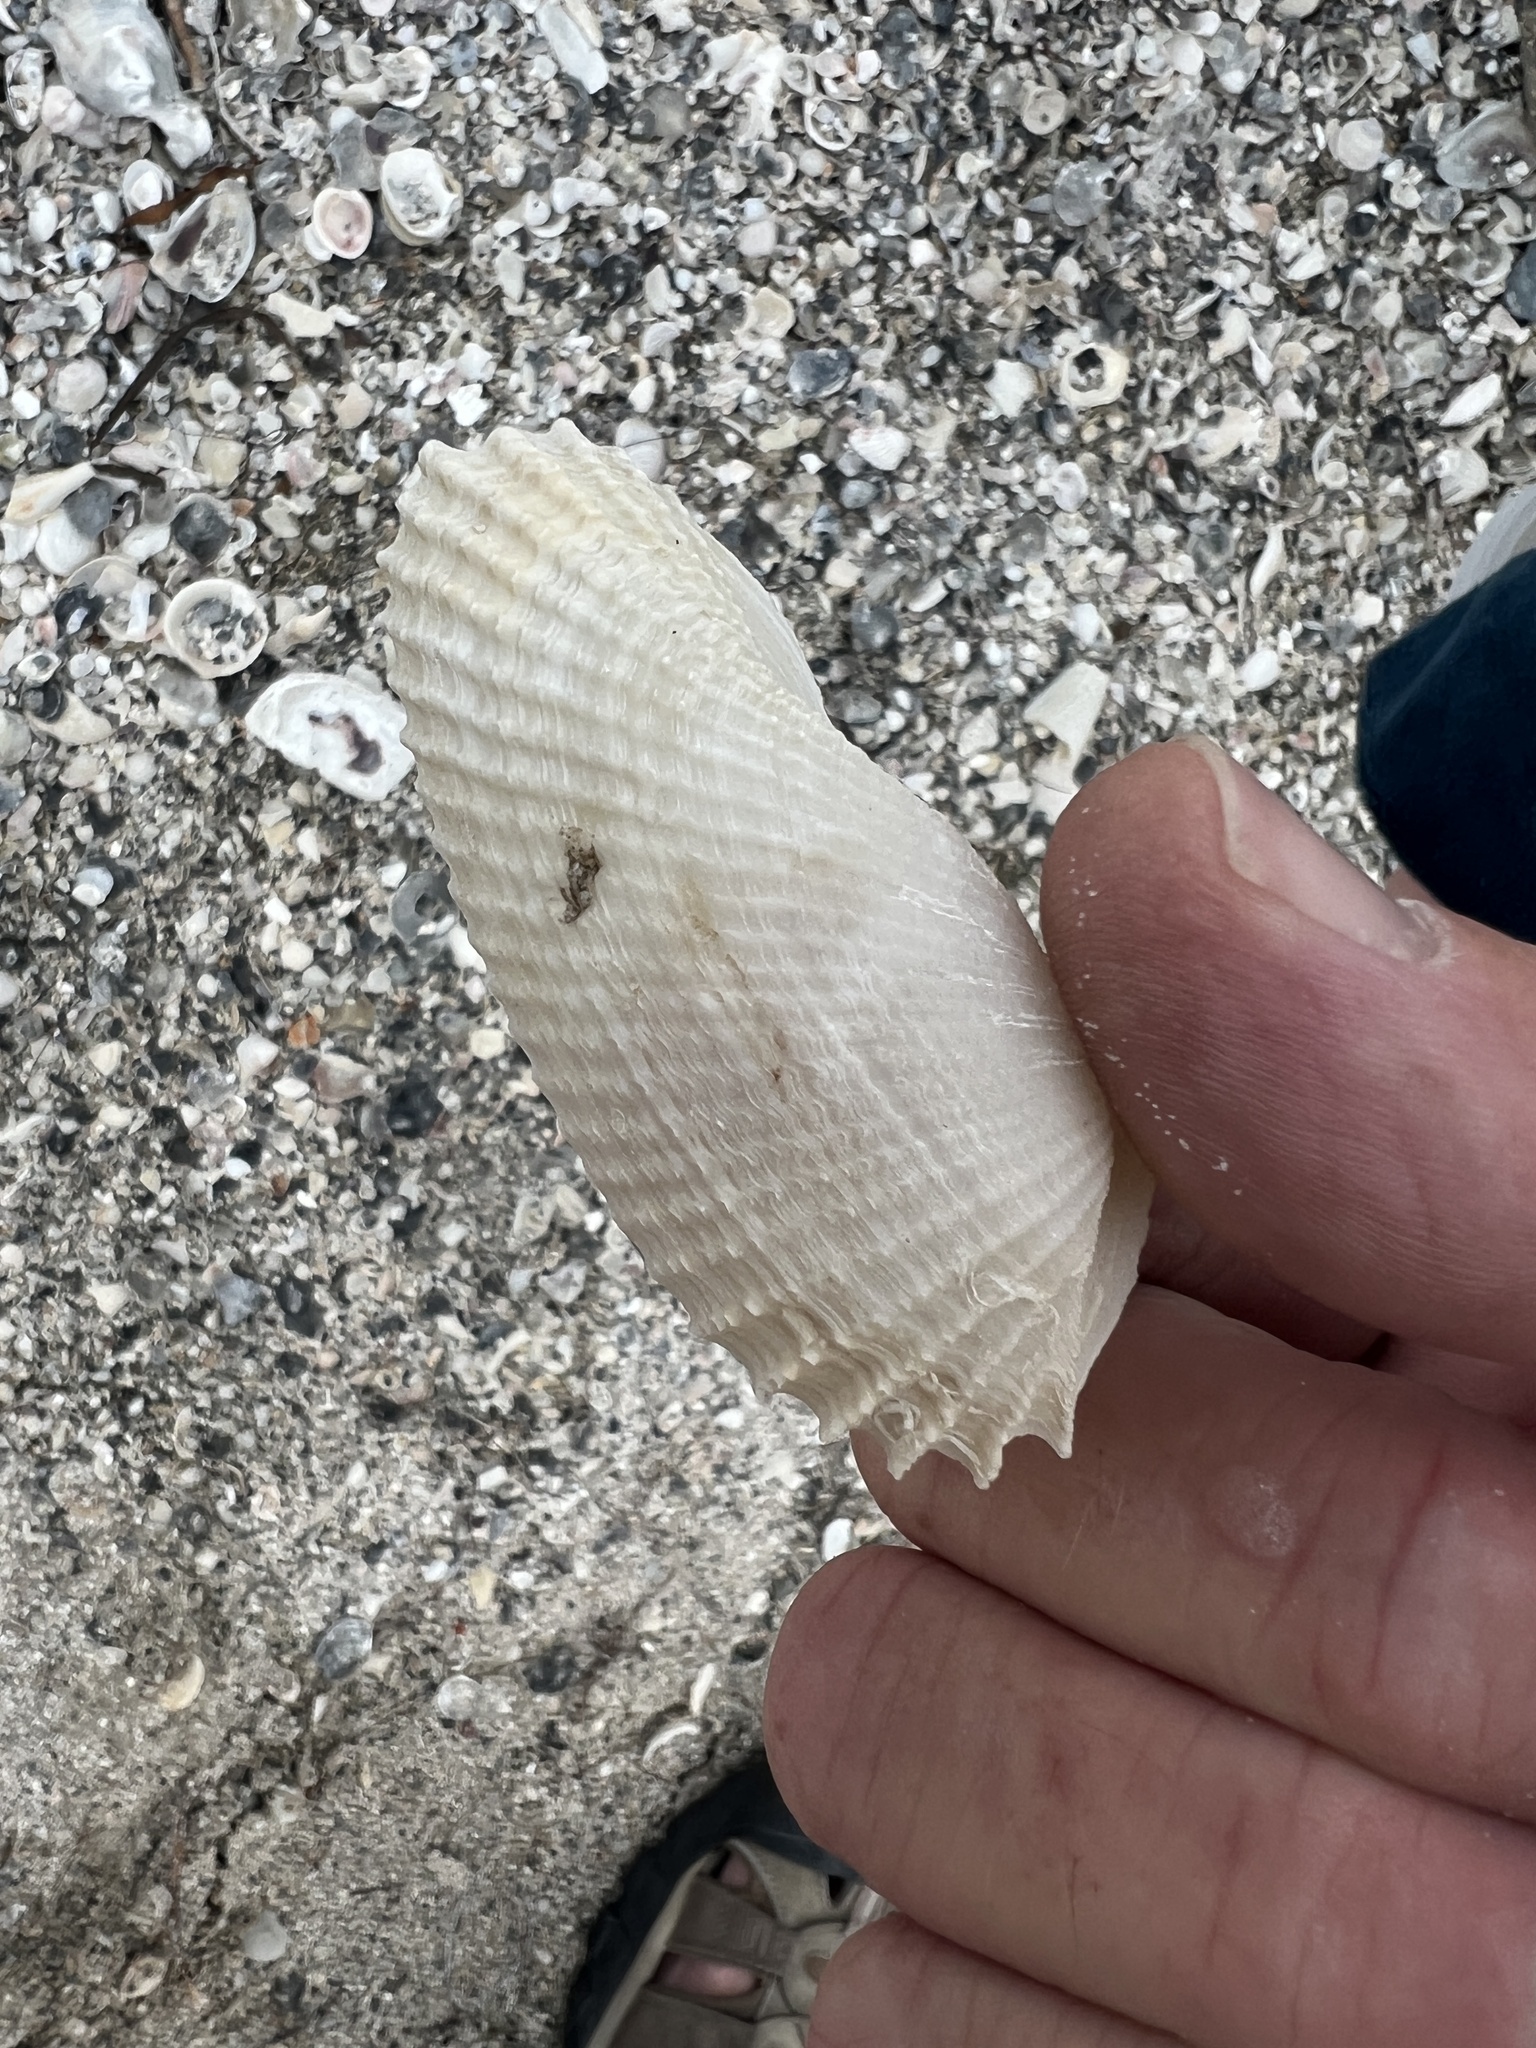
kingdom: Animalia
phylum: Mollusca
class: Bivalvia
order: Myida
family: Pholadidae
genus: Cyrtopleura
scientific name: Cyrtopleura costata
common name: Angel wing
